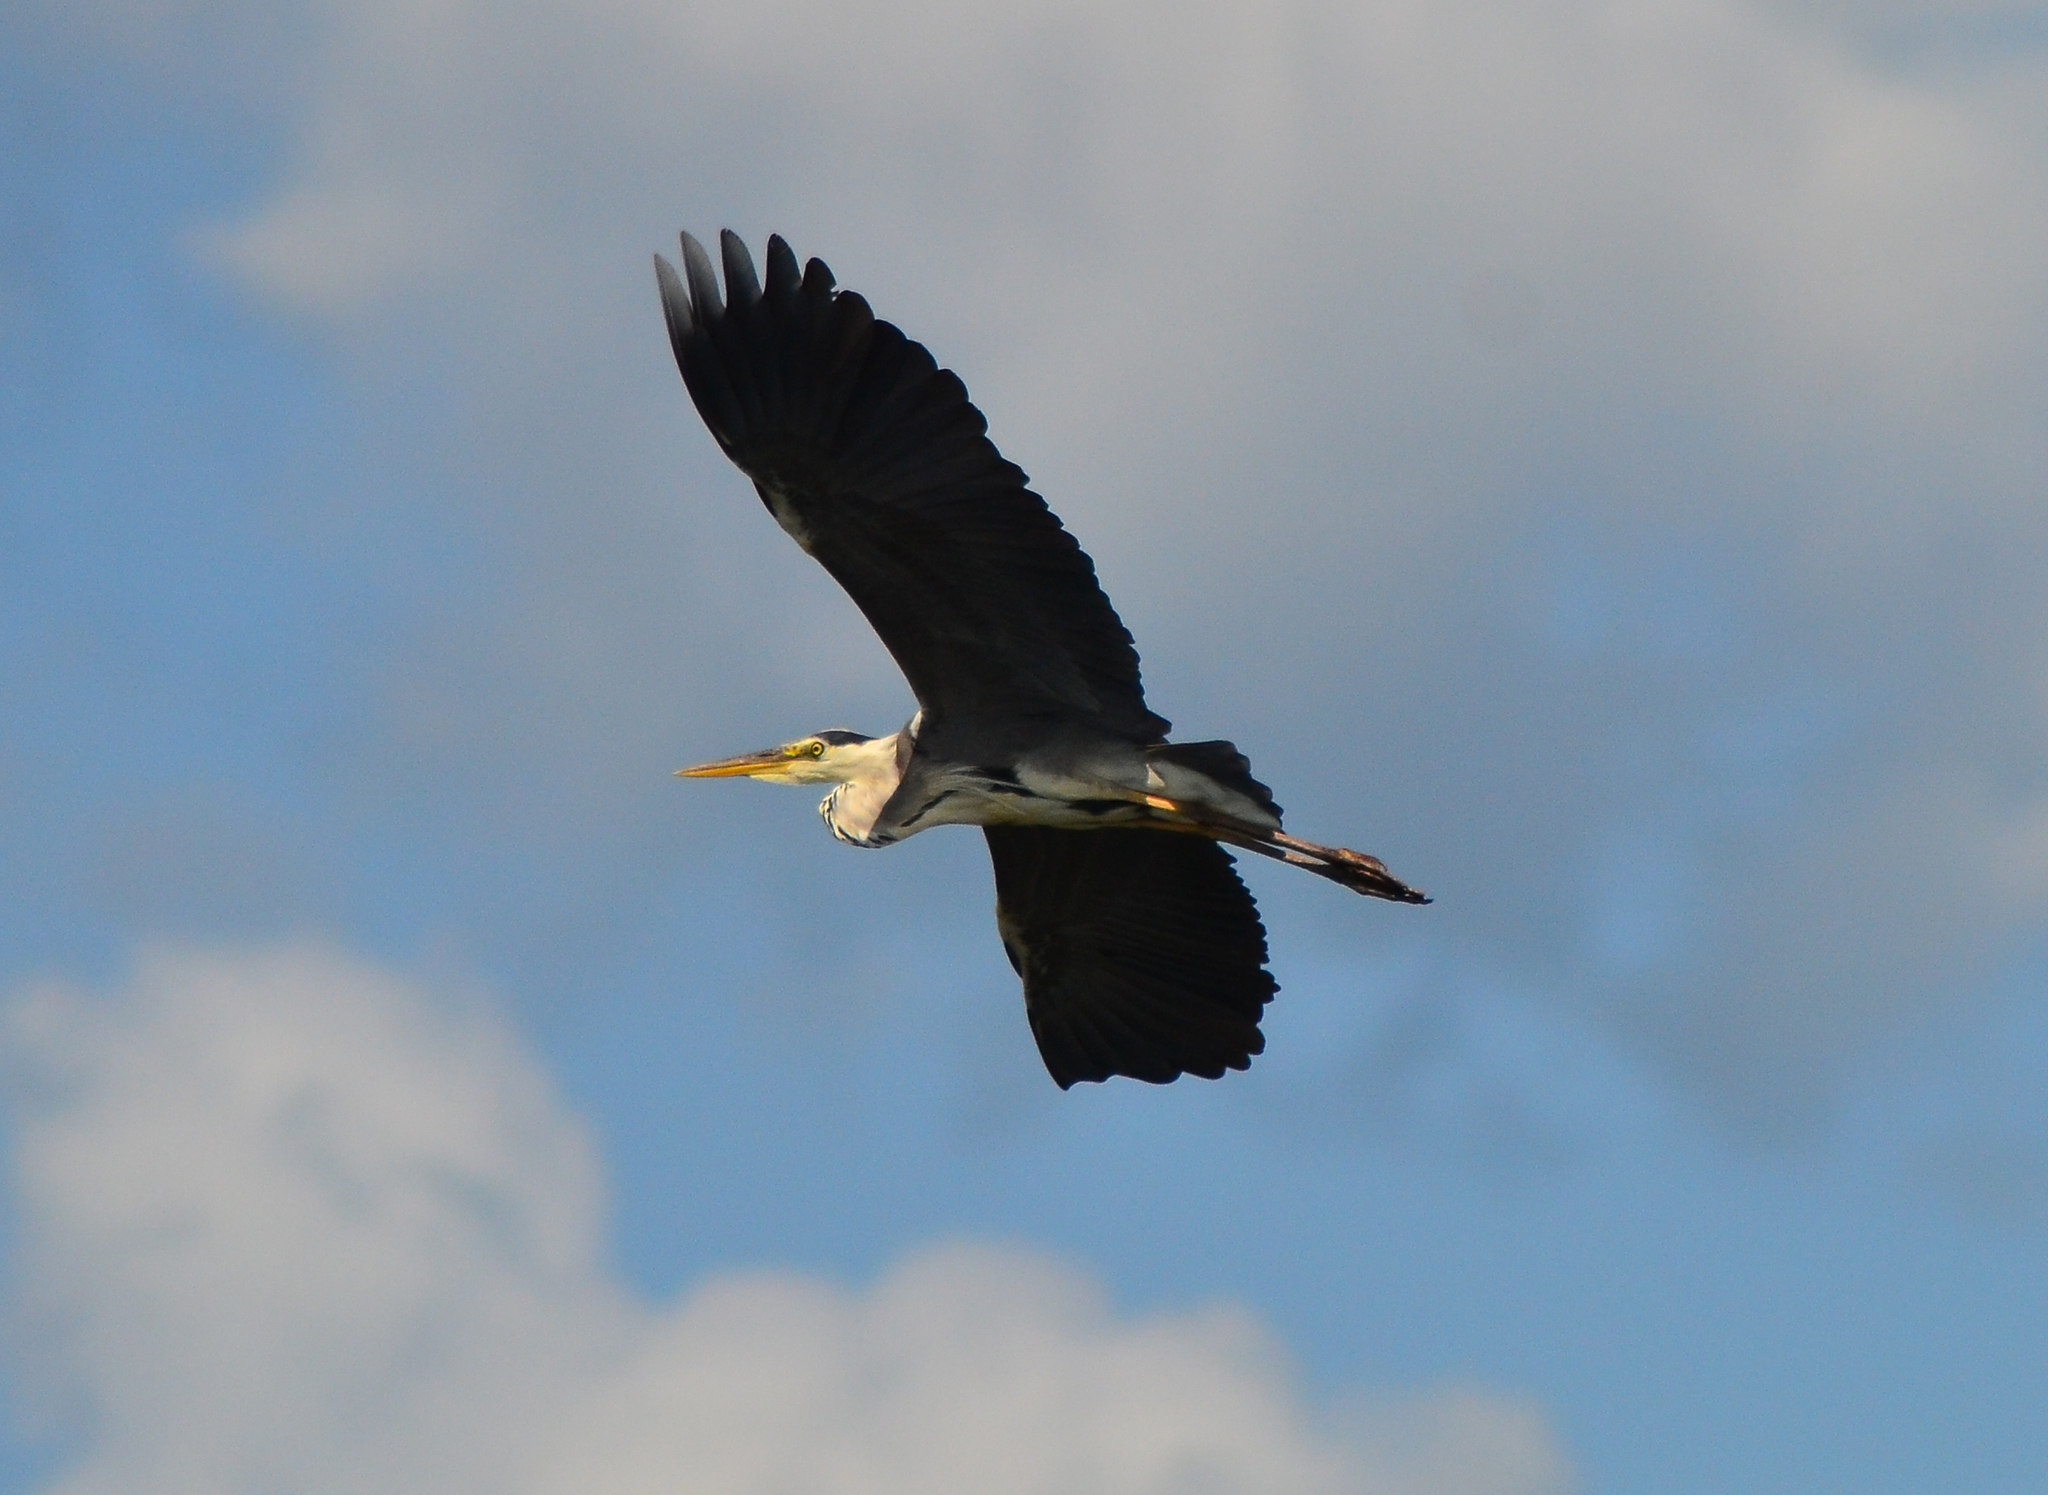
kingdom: Animalia
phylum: Chordata
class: Aves
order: Pelecaniformes
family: Ardeidae
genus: Ardea
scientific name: Ardea cinerea
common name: Grey heron
